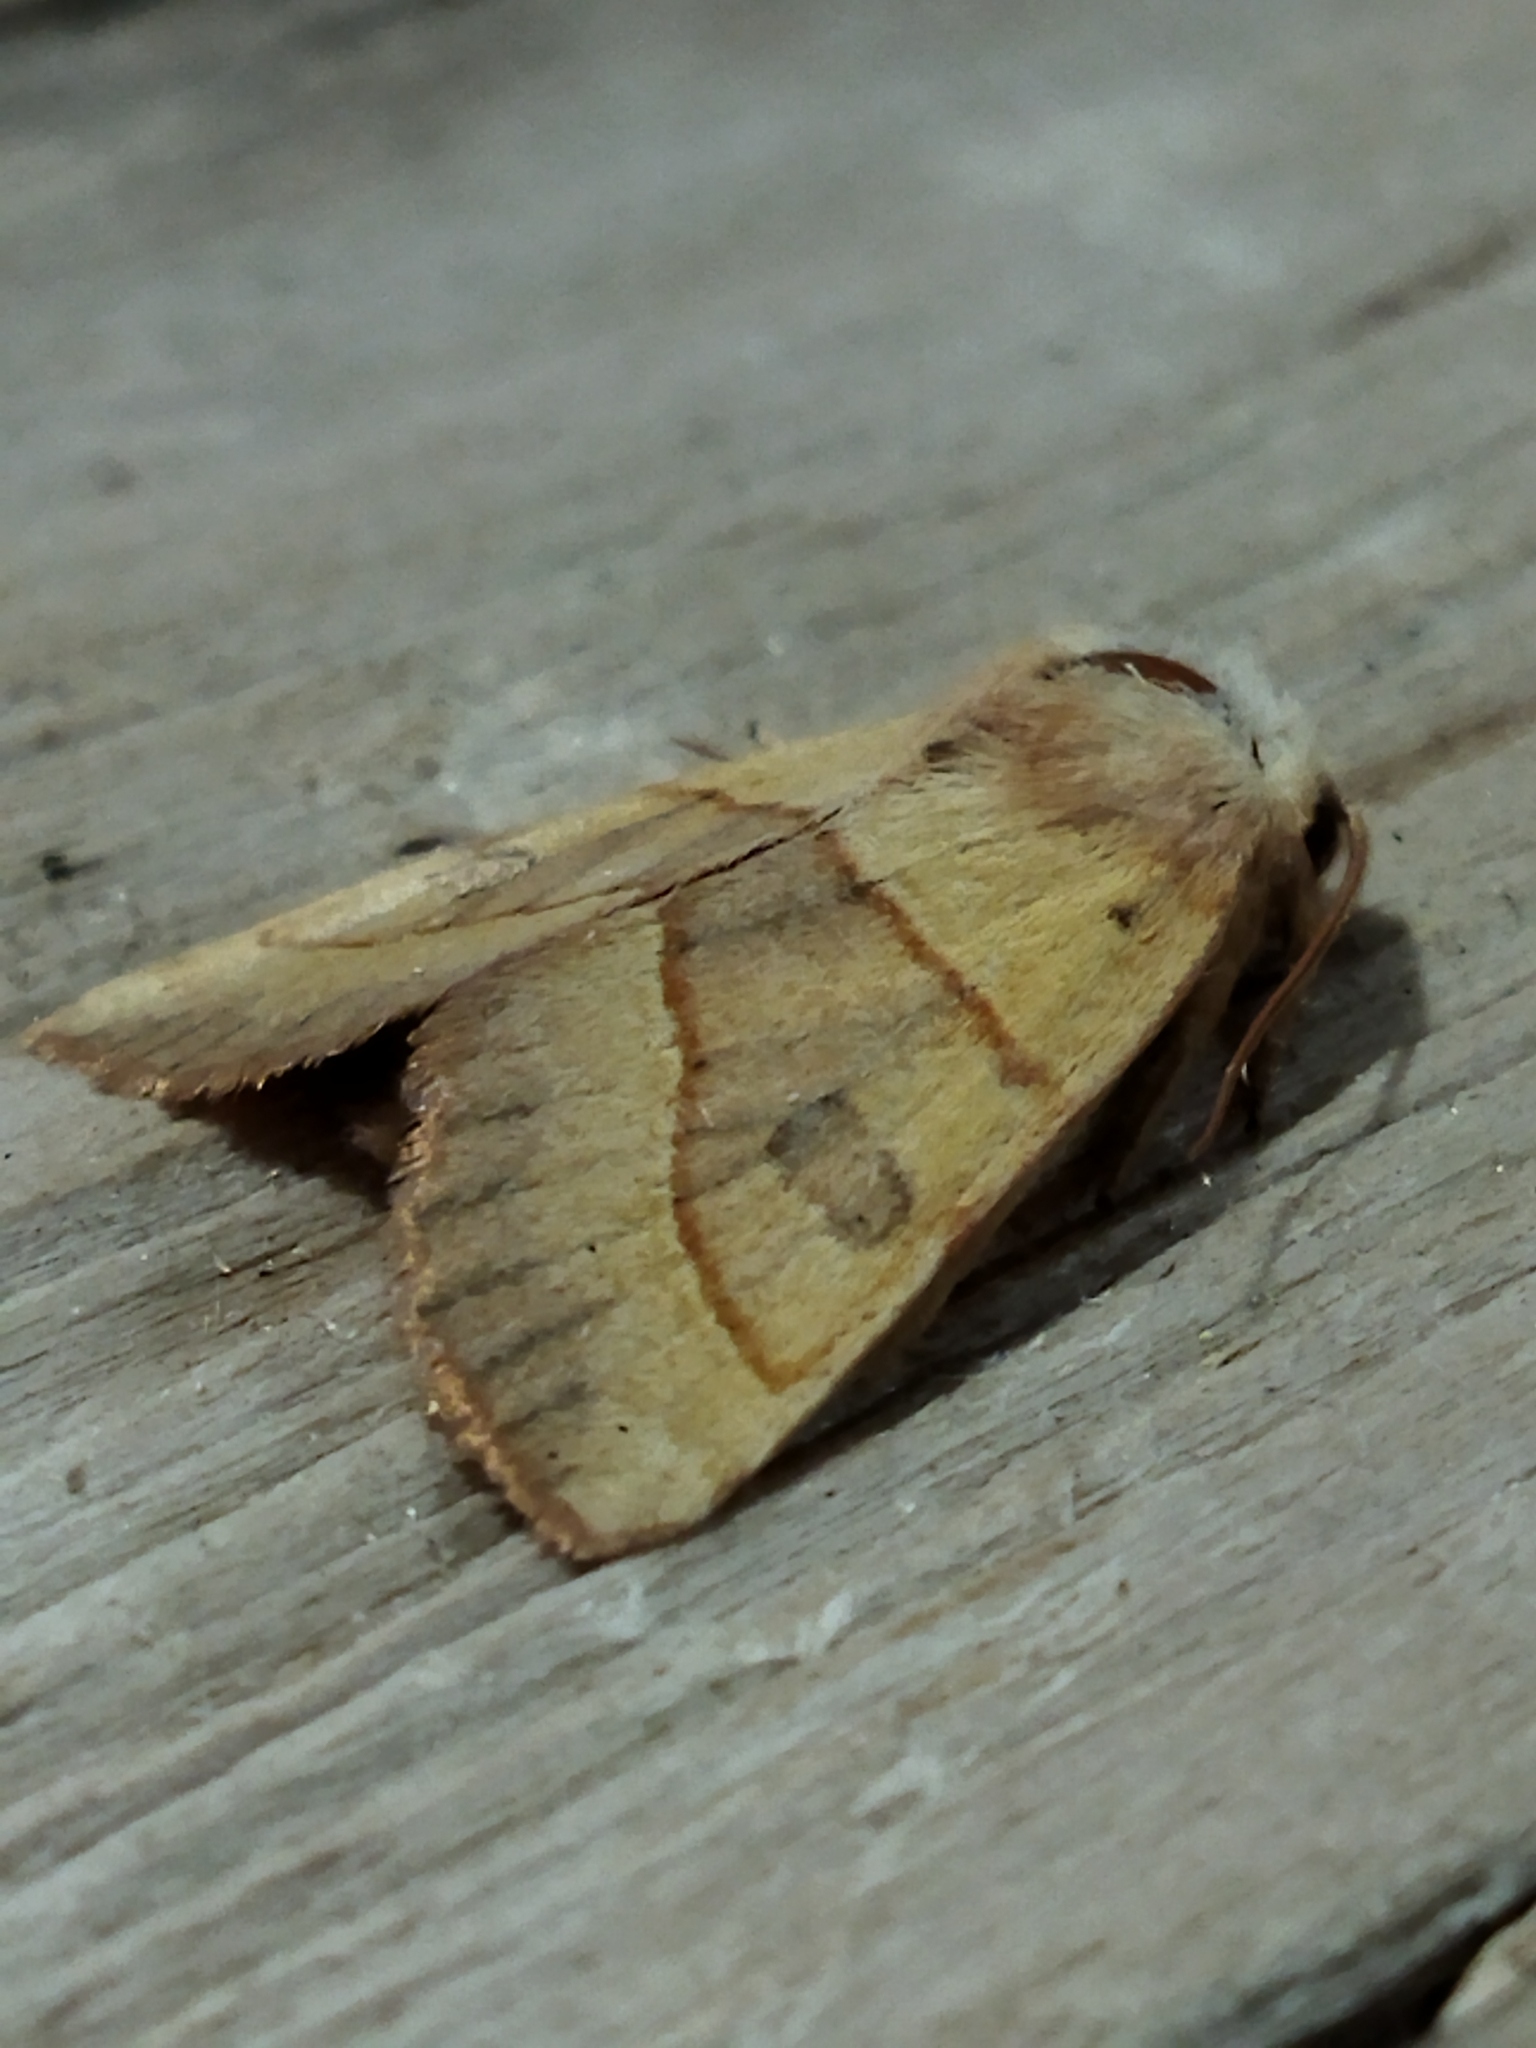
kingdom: Animalia
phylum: Arthropoda
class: Insecta
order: Lepidoptera
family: Noctuidae
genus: Atethmia
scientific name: Atethmia centrago
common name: Centre-barred sallow
